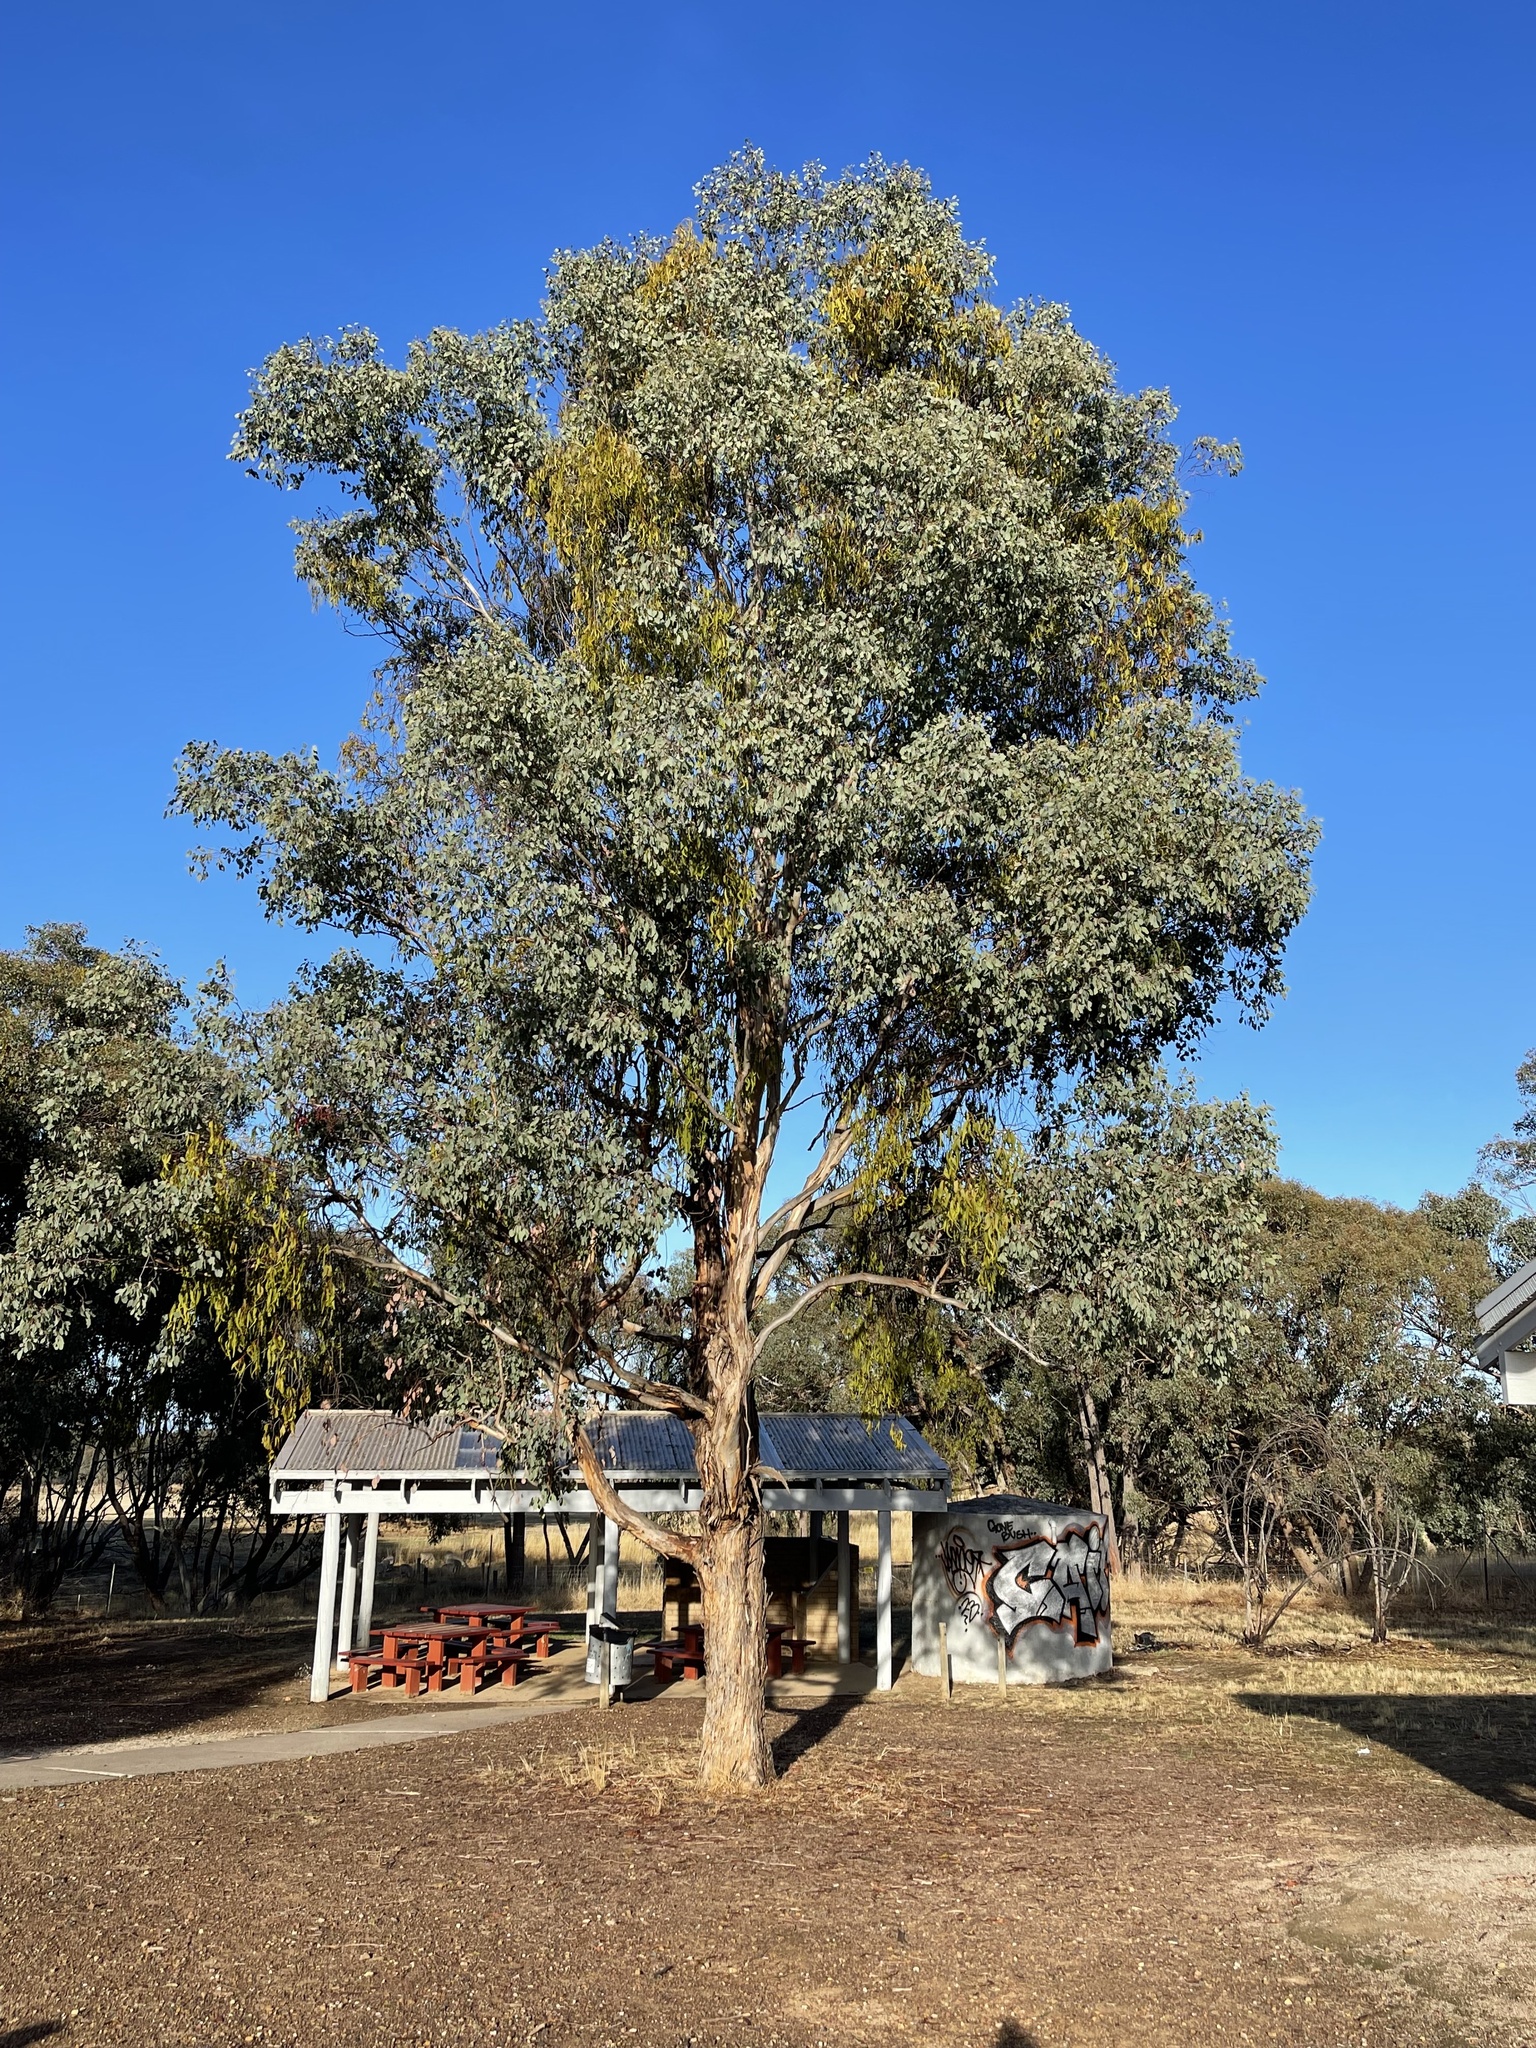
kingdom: Plantae
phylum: Tracheophyta
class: Magnoliopsida
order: Myrtales
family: Myrtaceae
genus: Eucalyptus
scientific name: Eucalyptus polyanthemos
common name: Red-box
